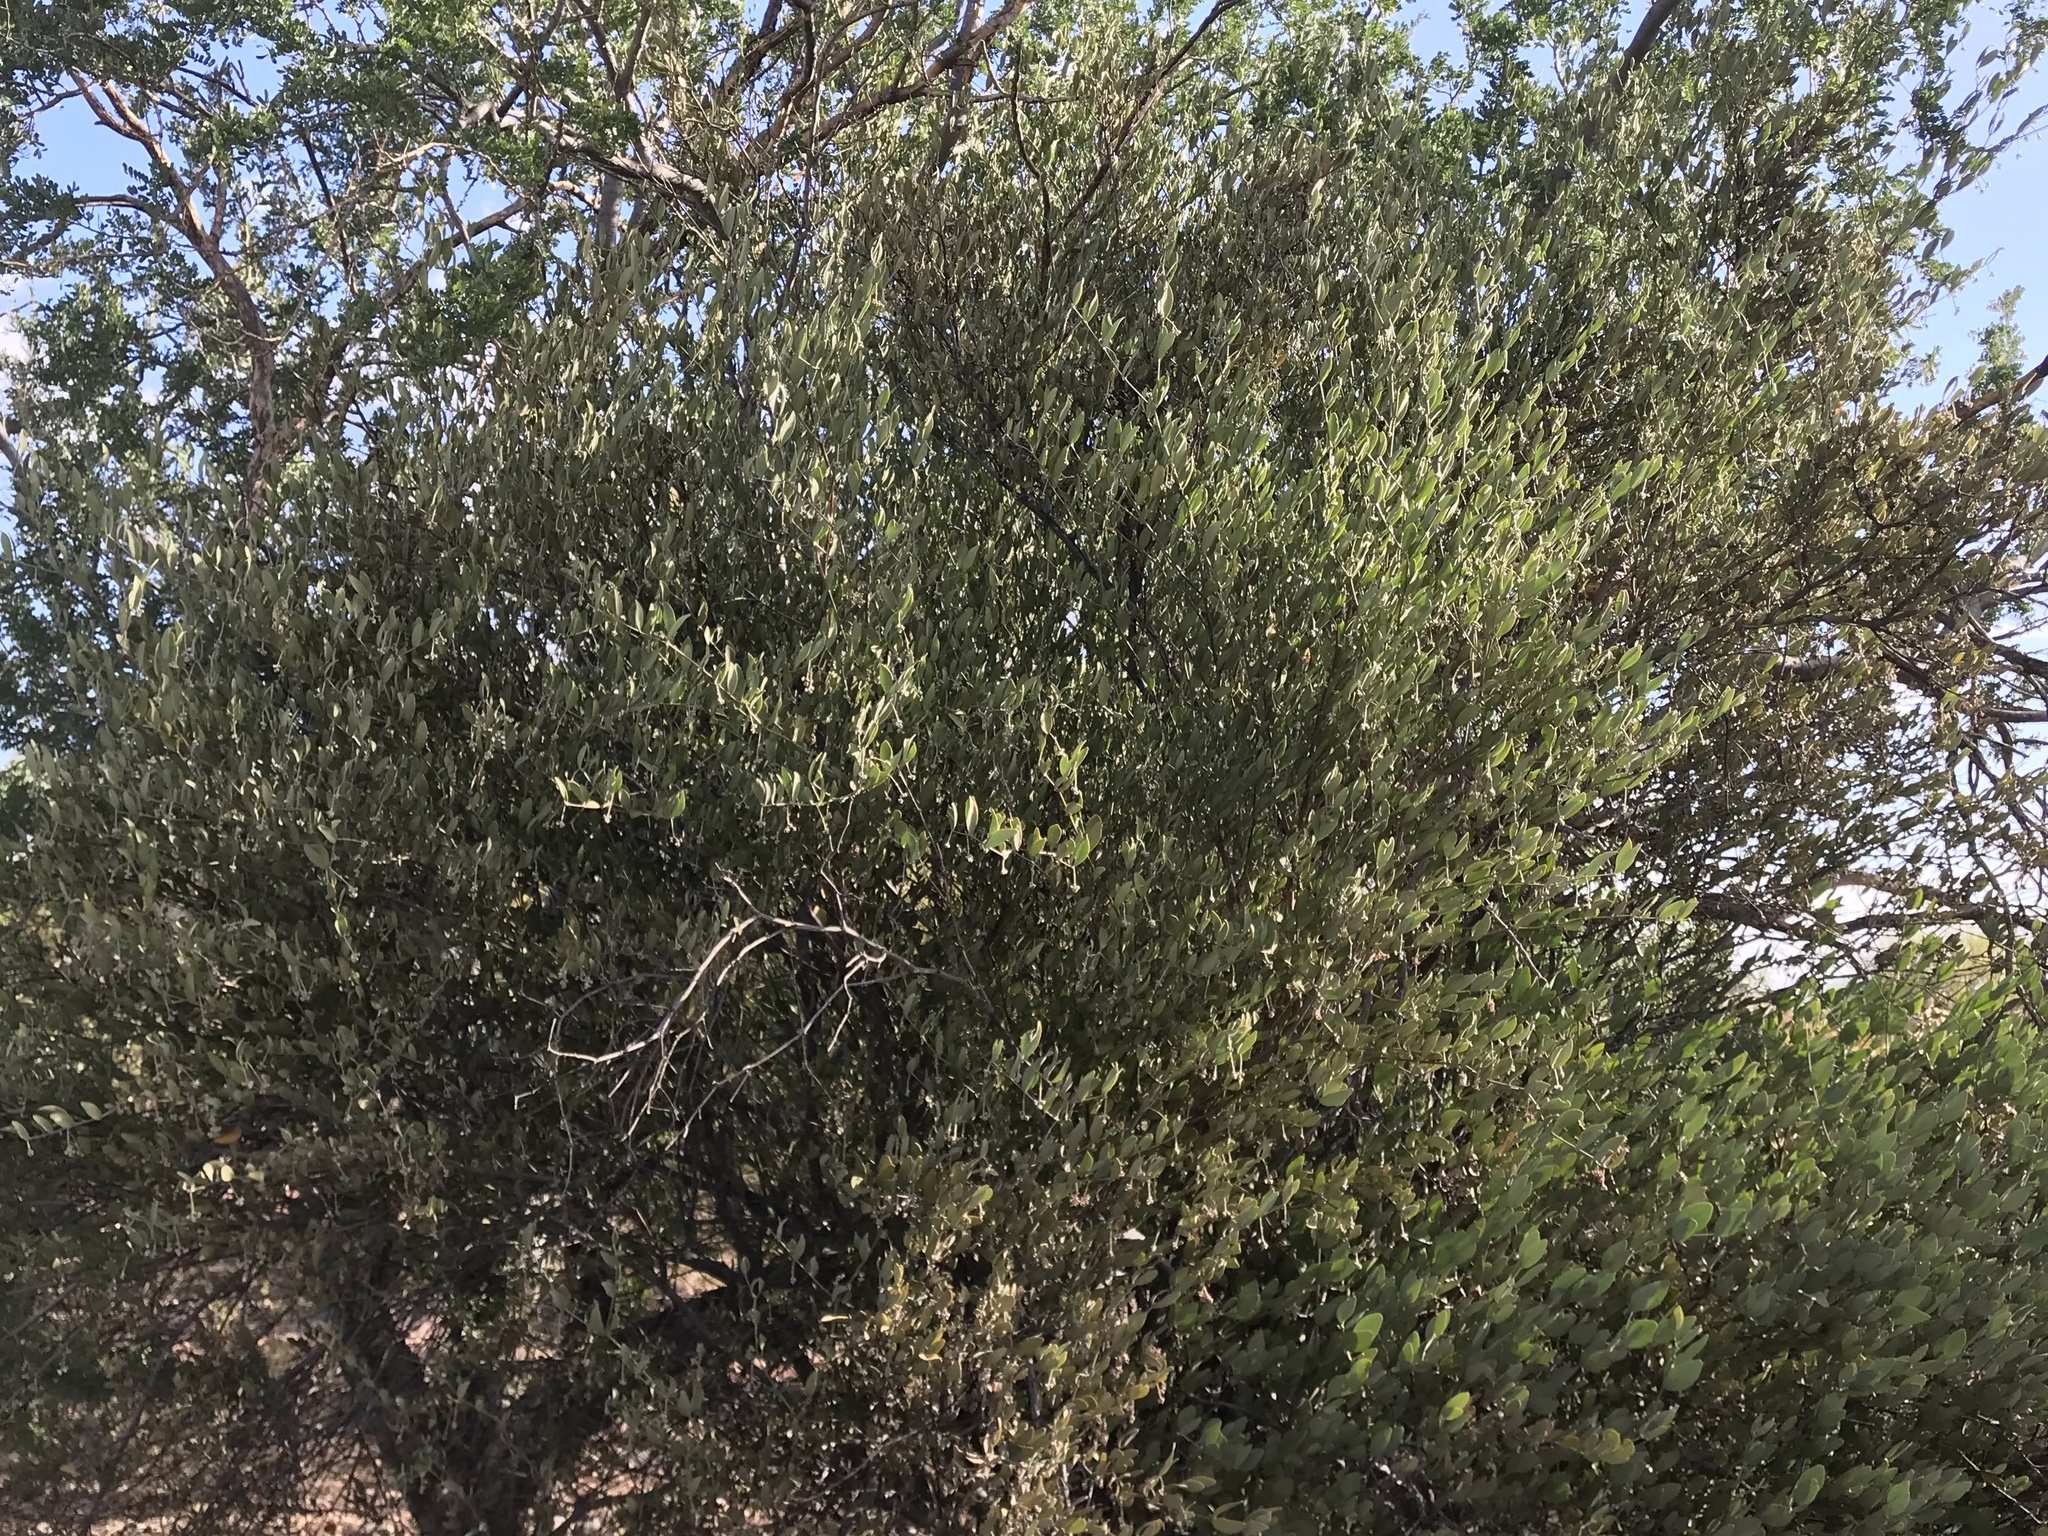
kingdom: Plantae
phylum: Tracheophyta
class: Magnoliopsida
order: Caryophyllales
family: Simmondsiaceae
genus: Simmondsia
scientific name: Simmondsia chinensis
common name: Jojoba
